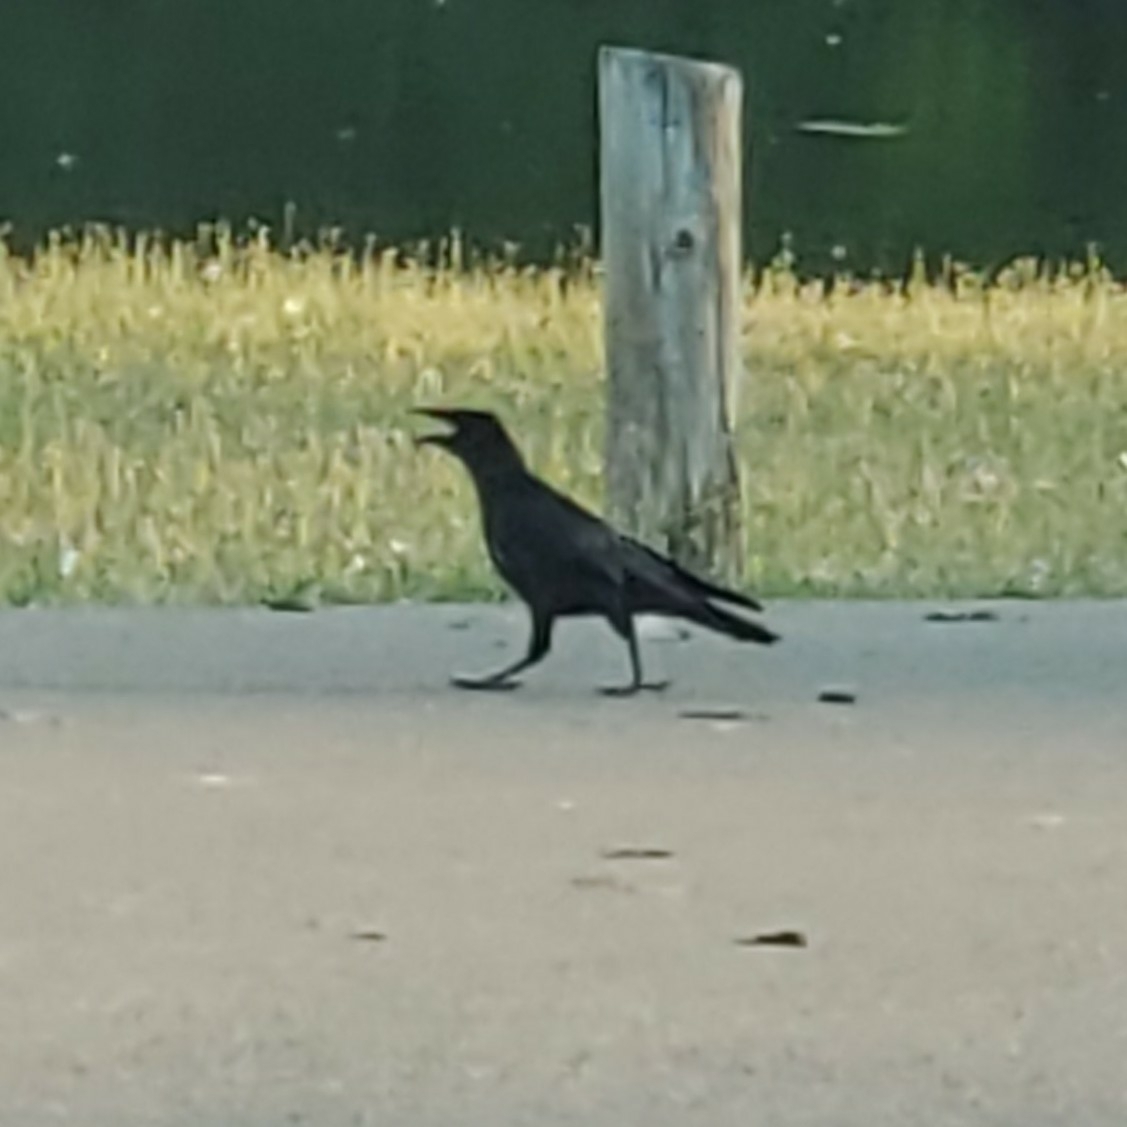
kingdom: Animalia
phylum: Chordata
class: Aves
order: Passeriformes
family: Corvidae
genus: Corvus
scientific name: Corvus brachyrhynchos
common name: American crow
